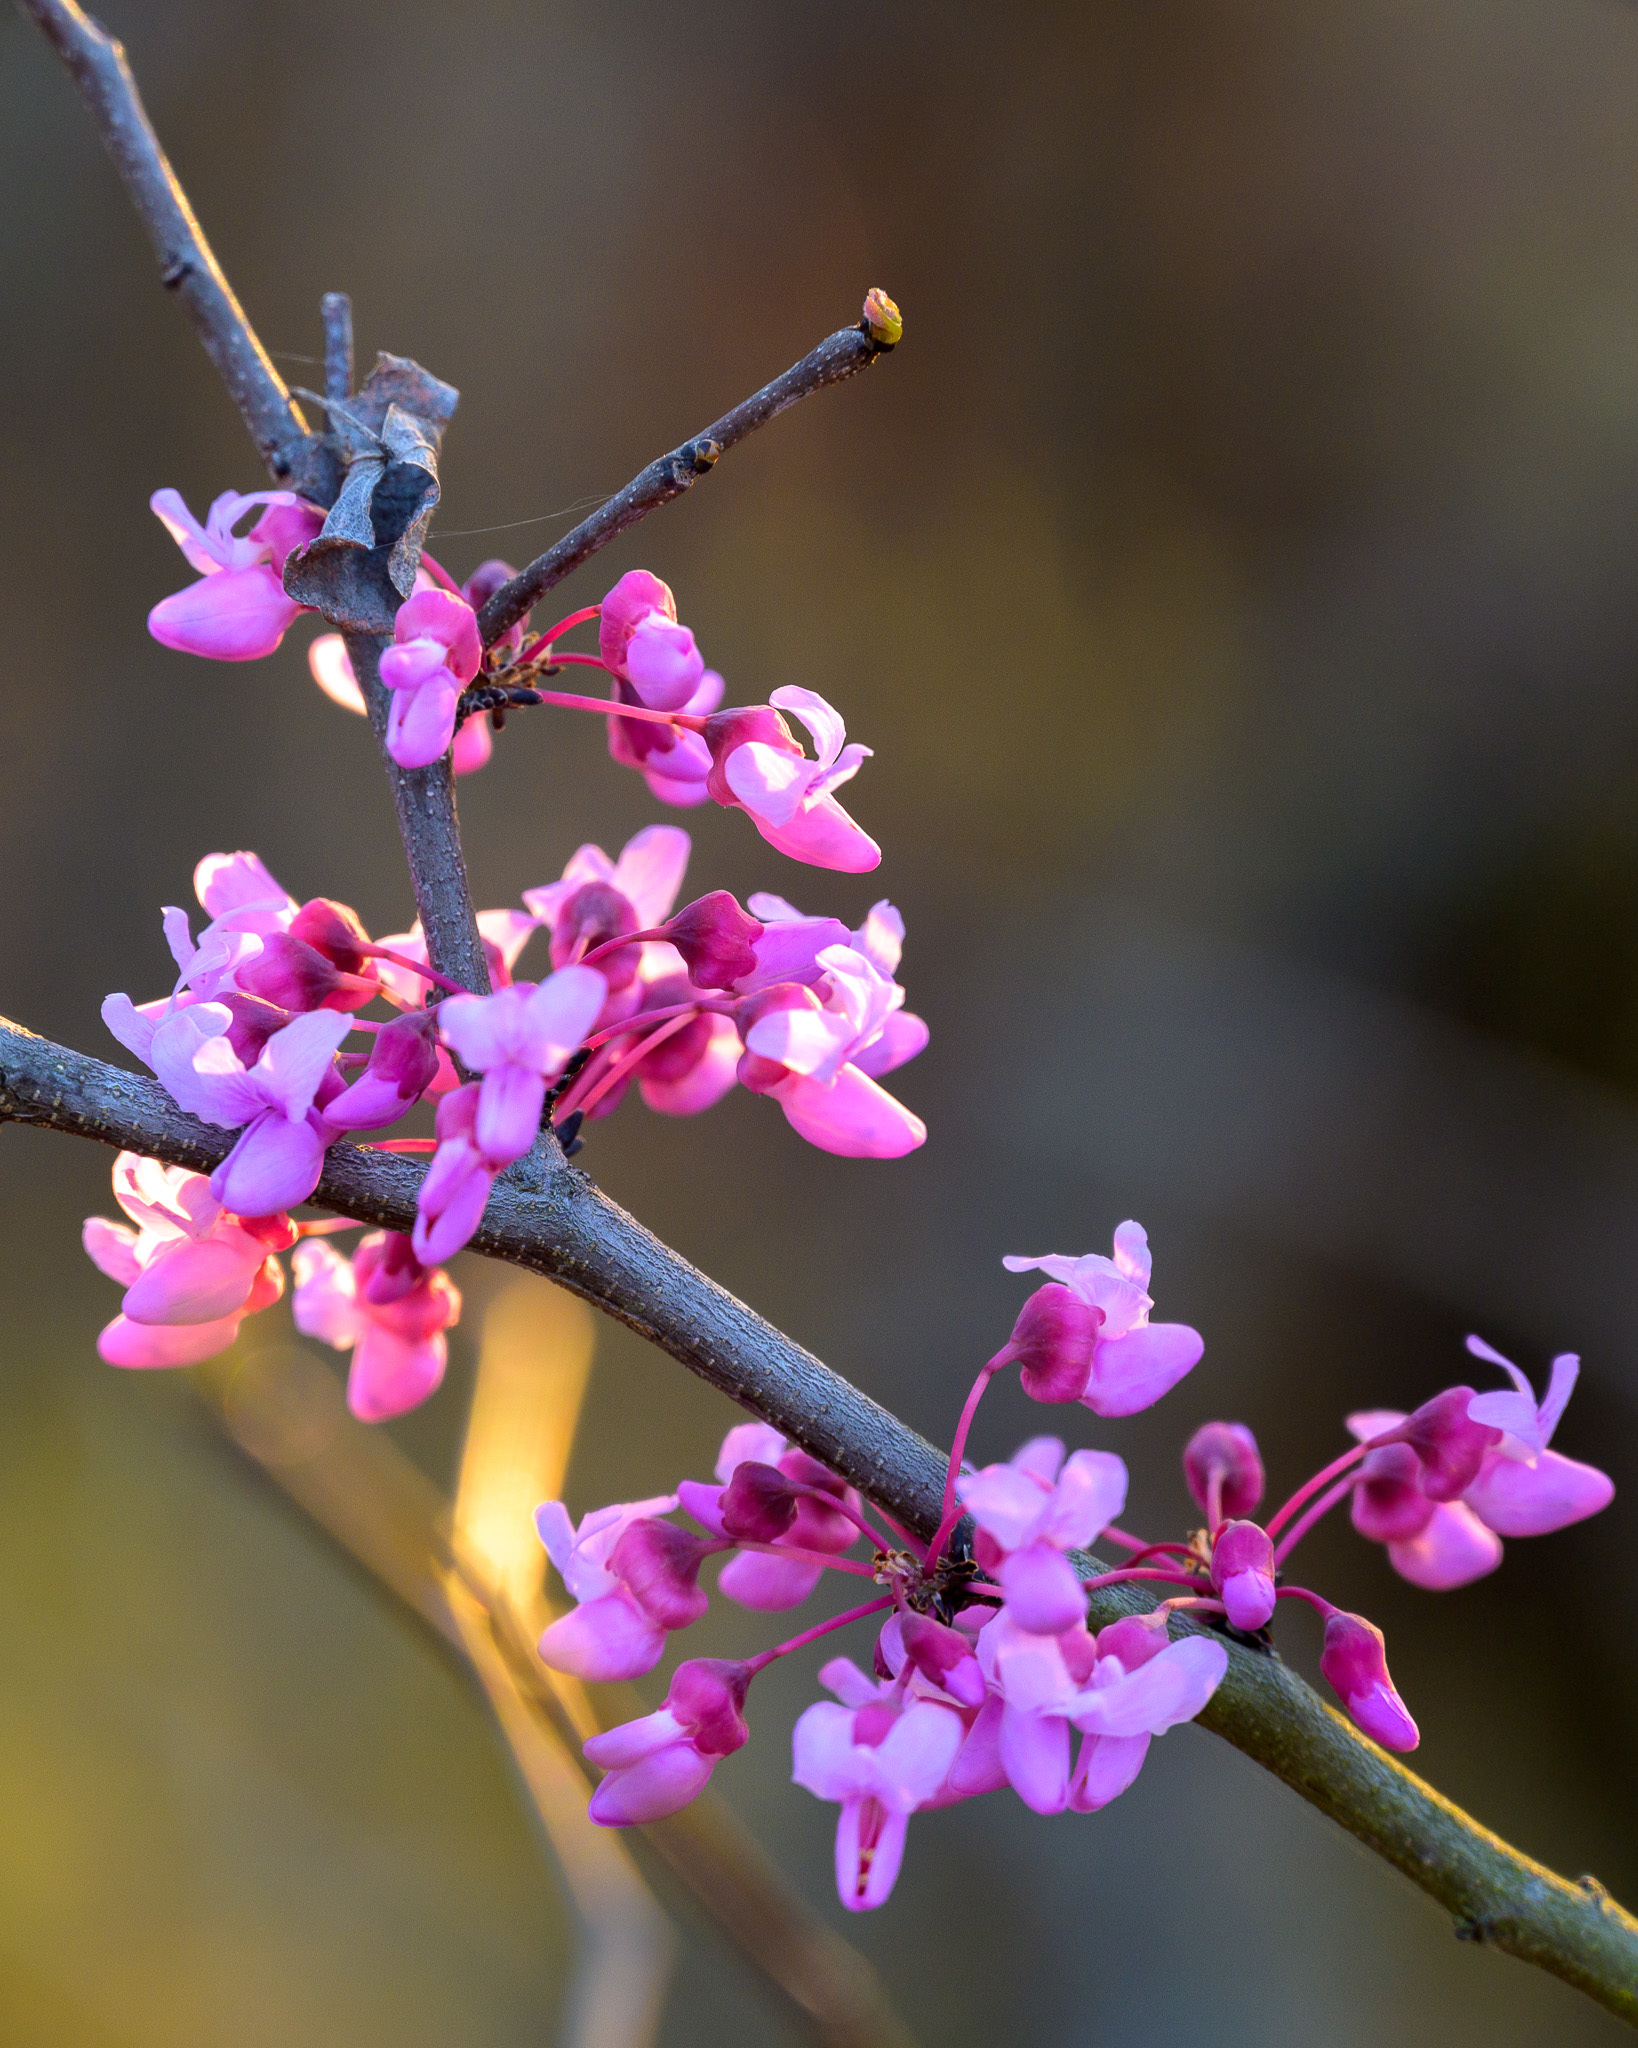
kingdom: Plantae
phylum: Tracheophyta
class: Magnoliopsida
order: Fabales
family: Fabaceae
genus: Cercis
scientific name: Cercis canadensis
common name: Eastern redbud
